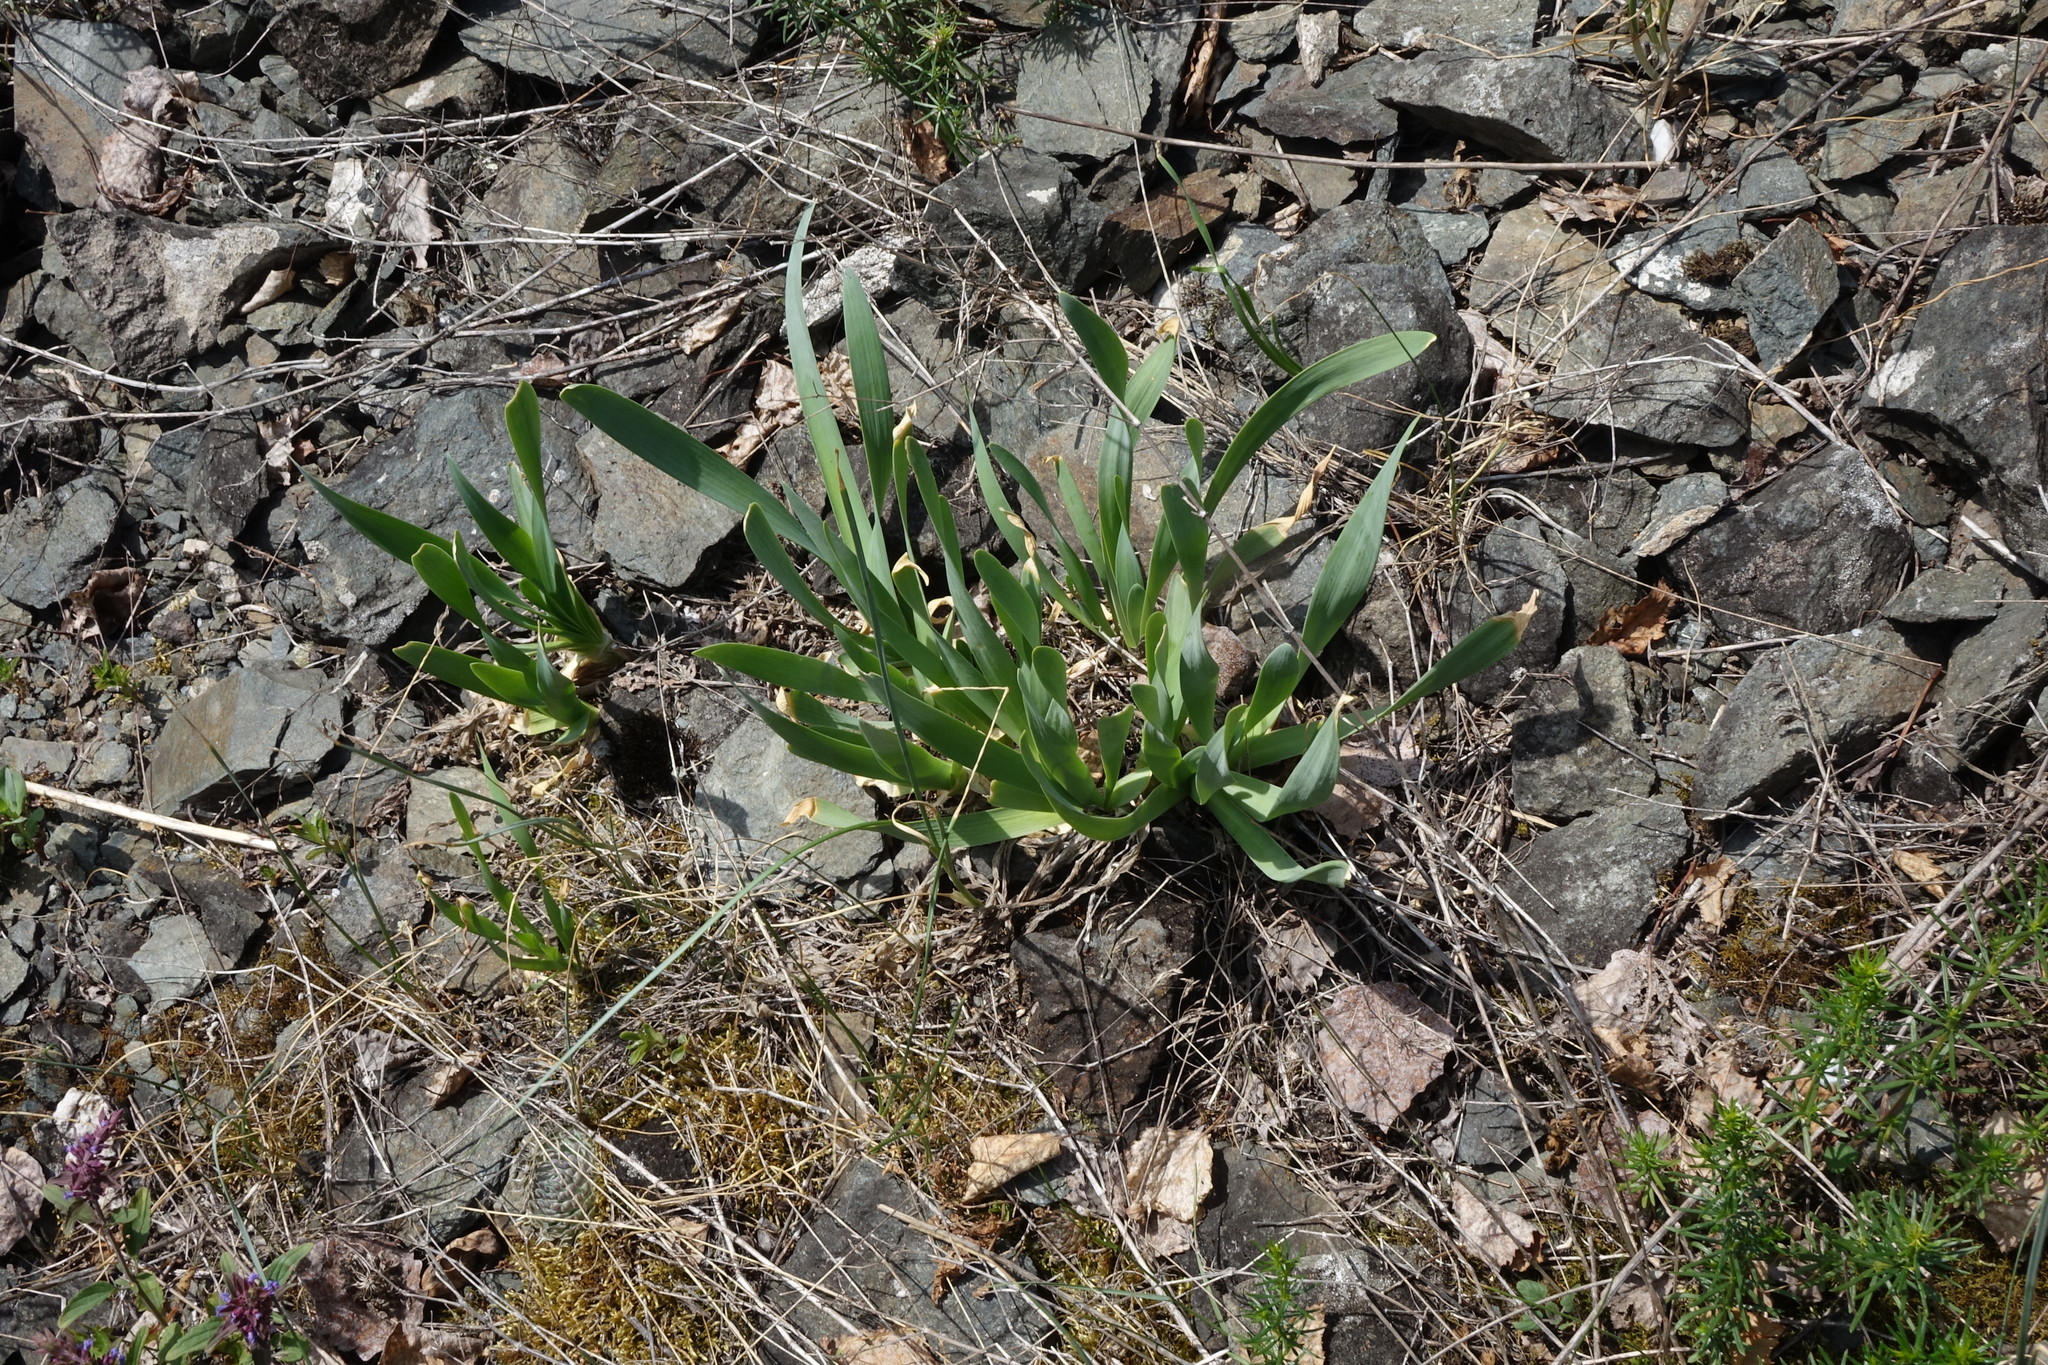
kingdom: Plantae
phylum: Tracheophyta
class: Liliopsida
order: Asparagales
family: Amaryllidaceae
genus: Allium
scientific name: Allium nutans
